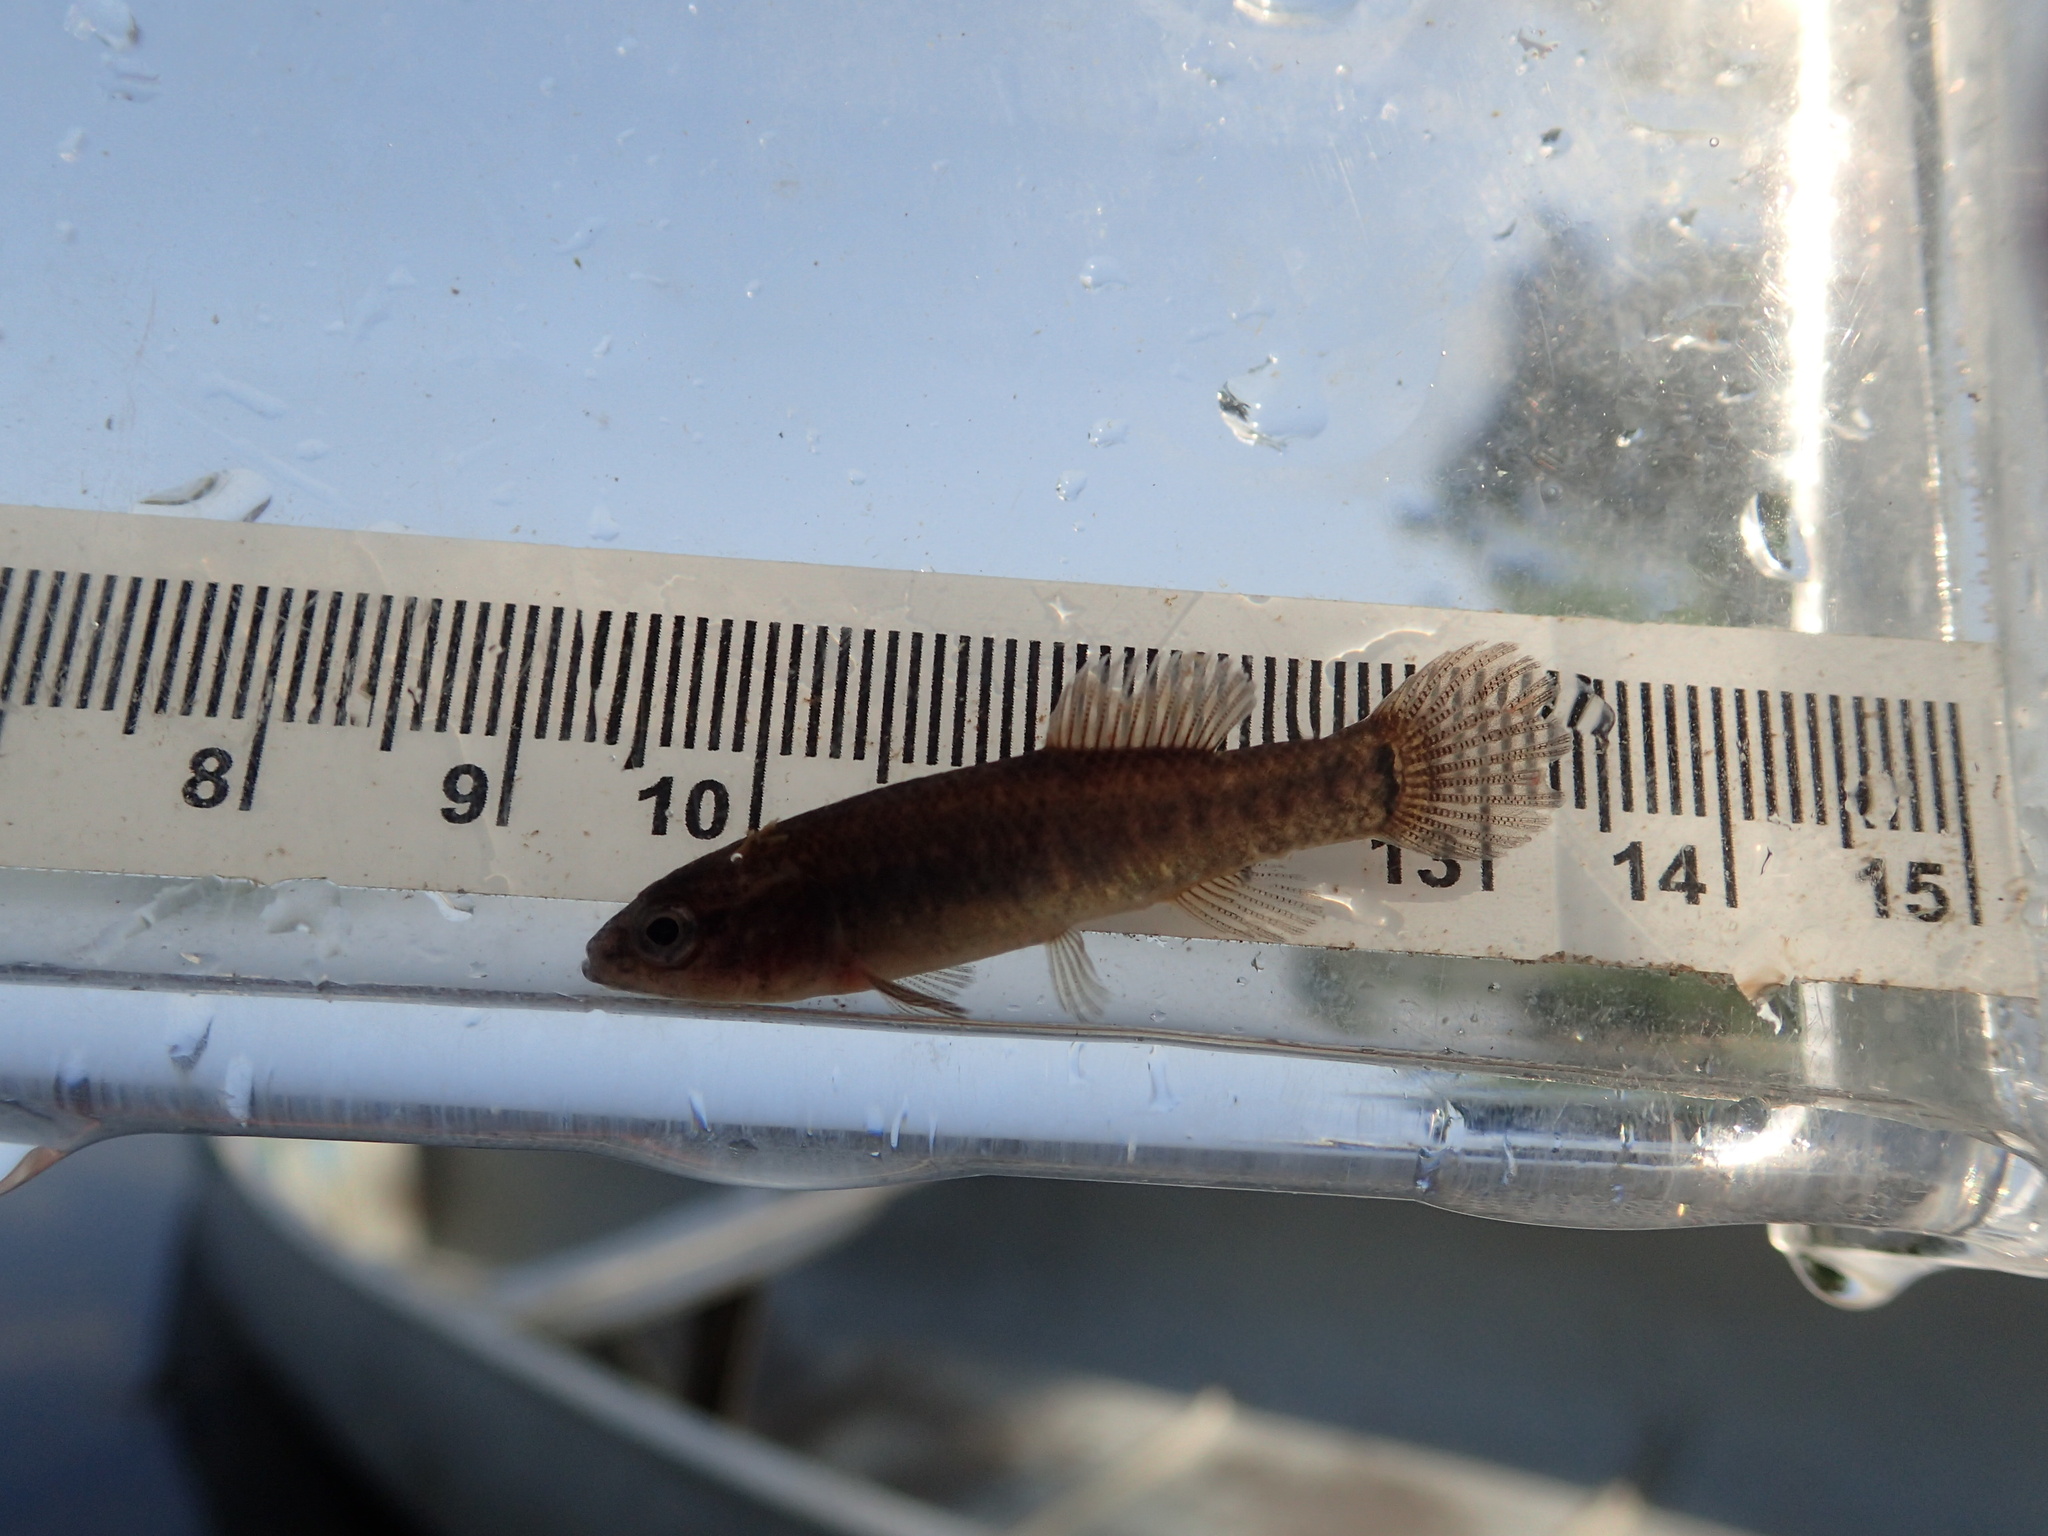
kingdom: Animalia
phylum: Chordata
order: Esociformes
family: Umbridae
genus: Umbra
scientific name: Umbra limi
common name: Central mudminnow
